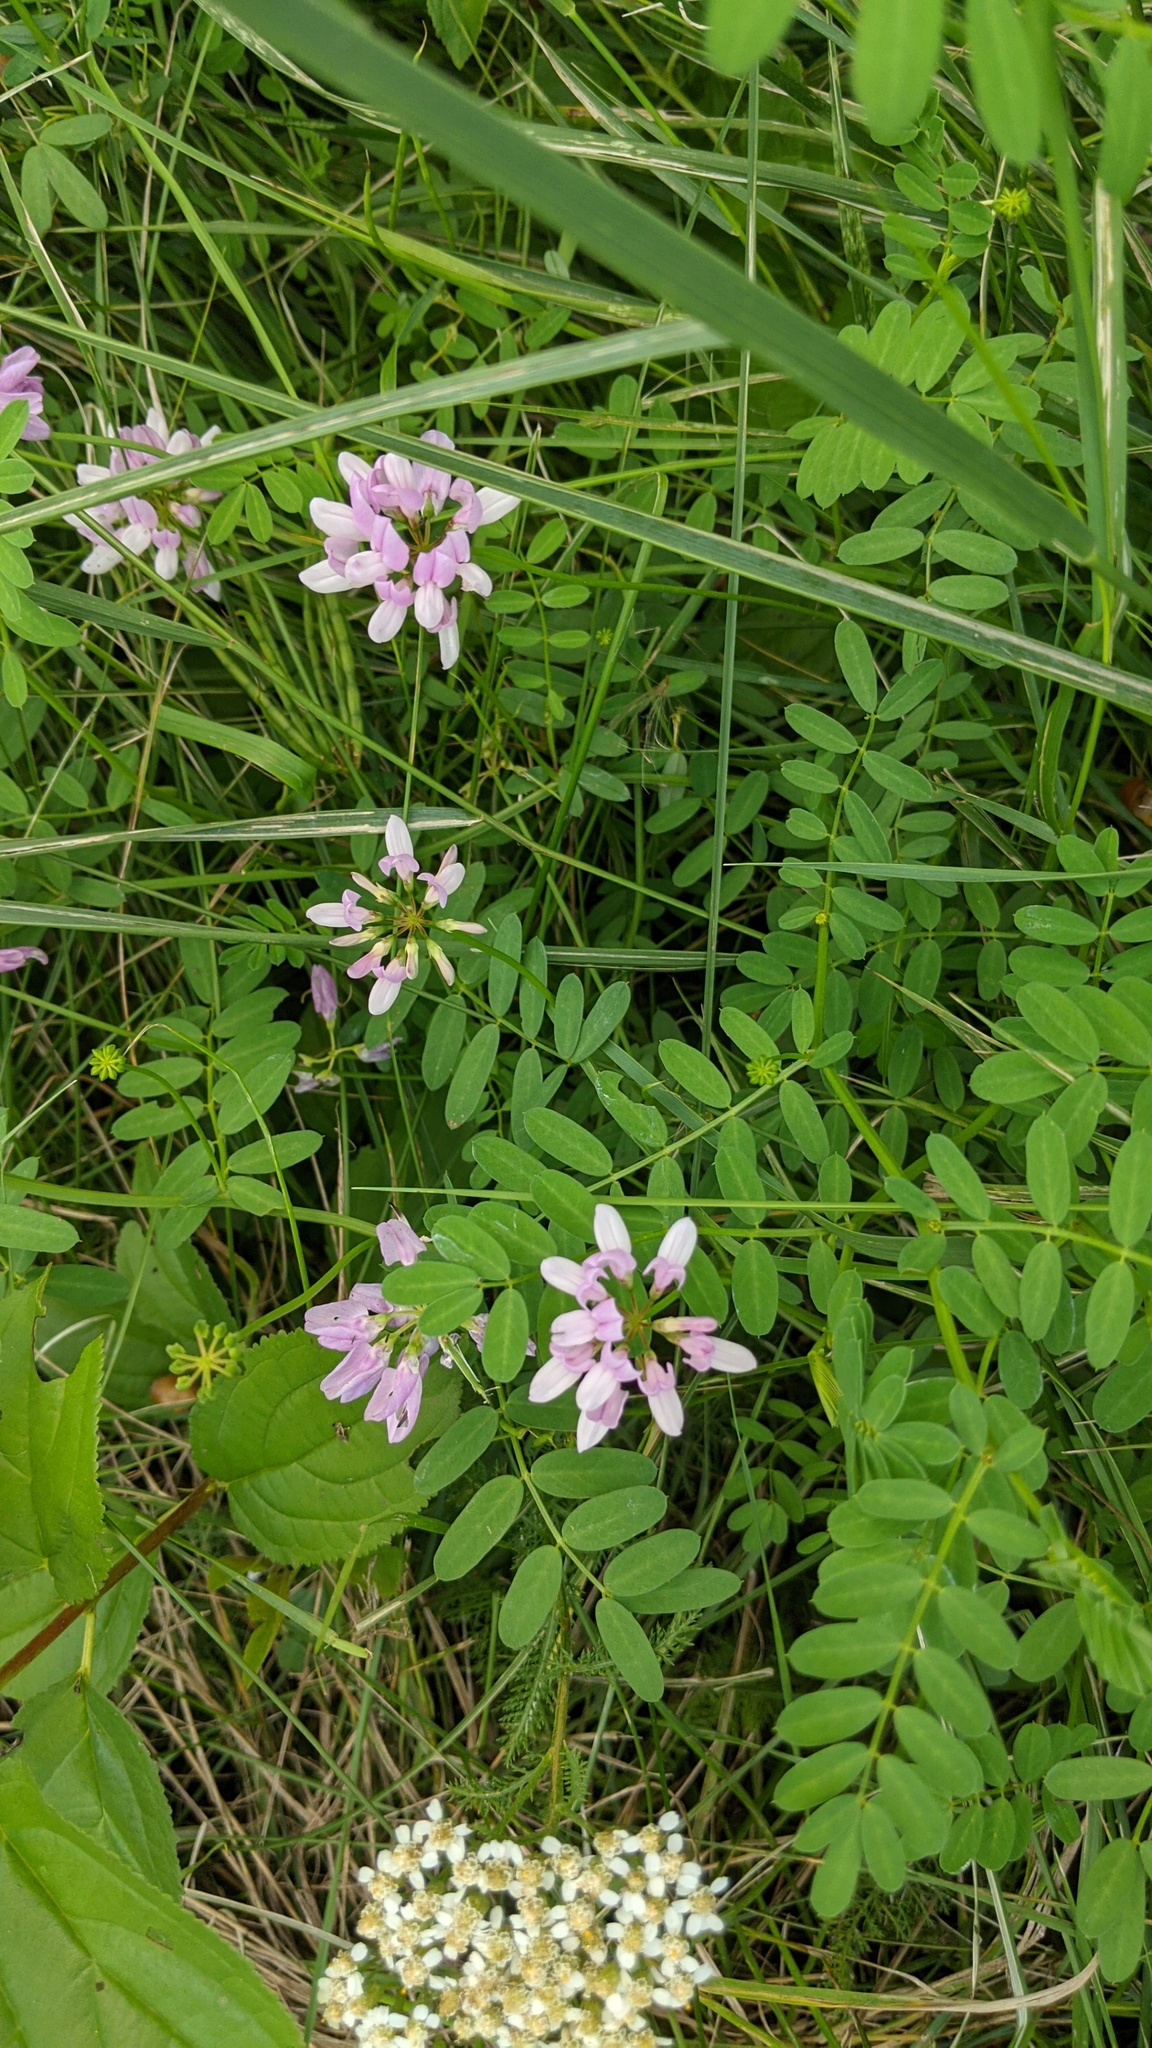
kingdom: Plantae
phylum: Tracheophyta
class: Magnoliopsida
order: Fabales
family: Fabaceae
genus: Coronilla
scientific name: Coronilla varia
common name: Crownvetch
